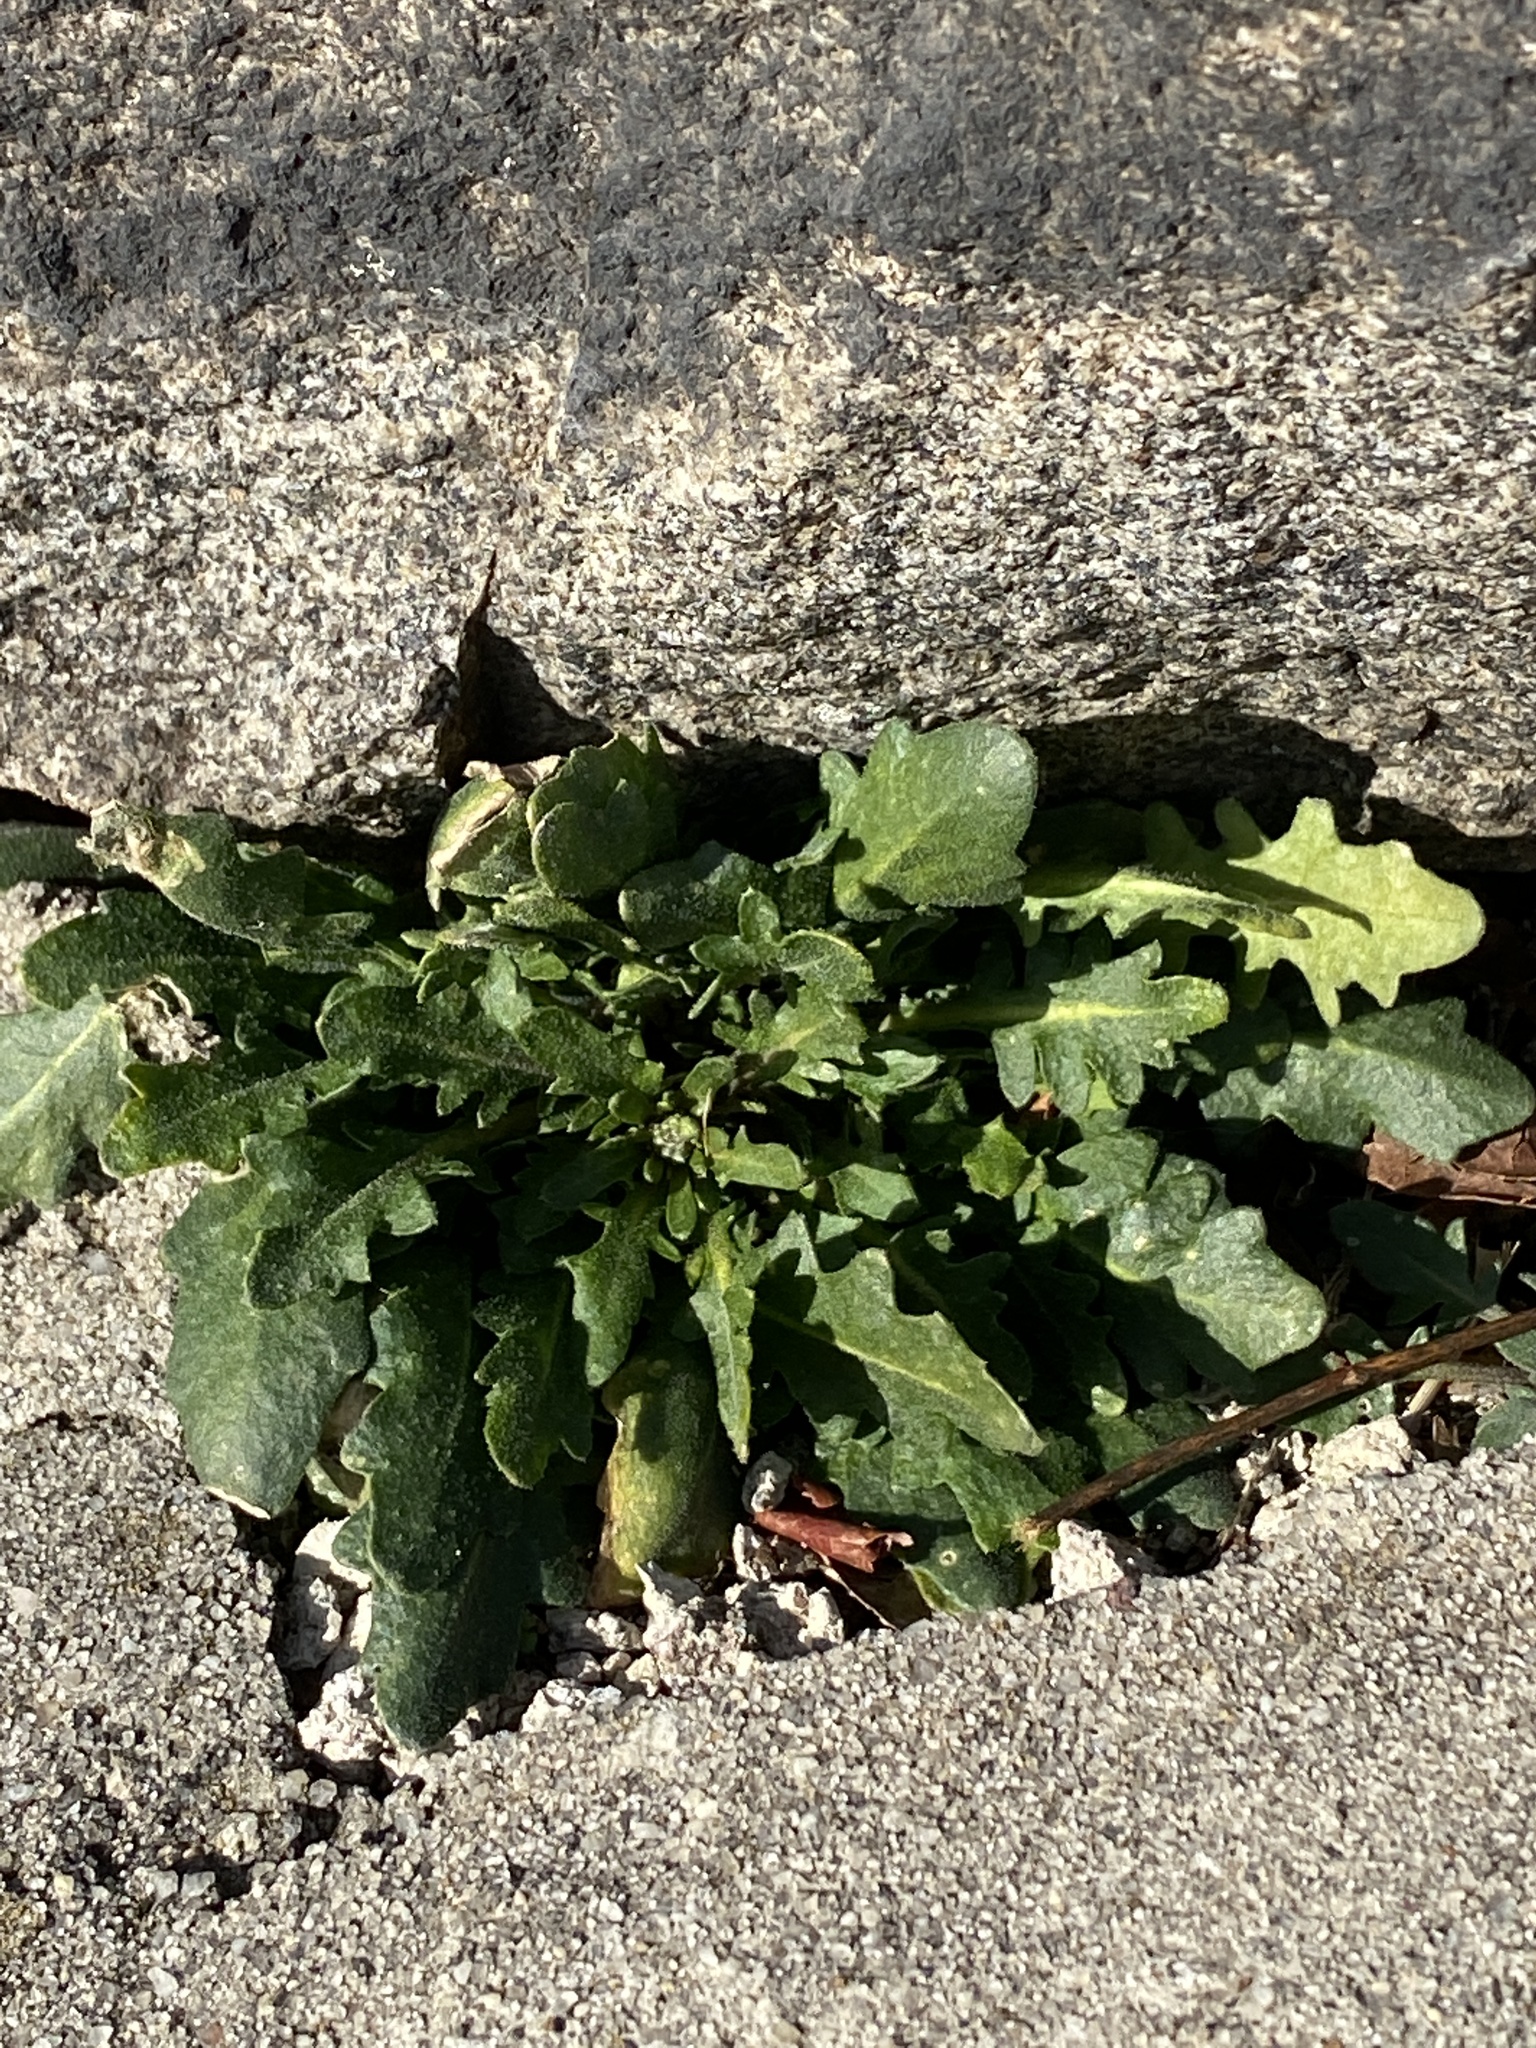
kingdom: Plantae
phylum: Tracheophyta
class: Magnoliopsida
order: Brassicales
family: Brassicaceae
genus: Arabidopsis
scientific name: Arabidopsis lyrata
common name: Lyrate rockcress
